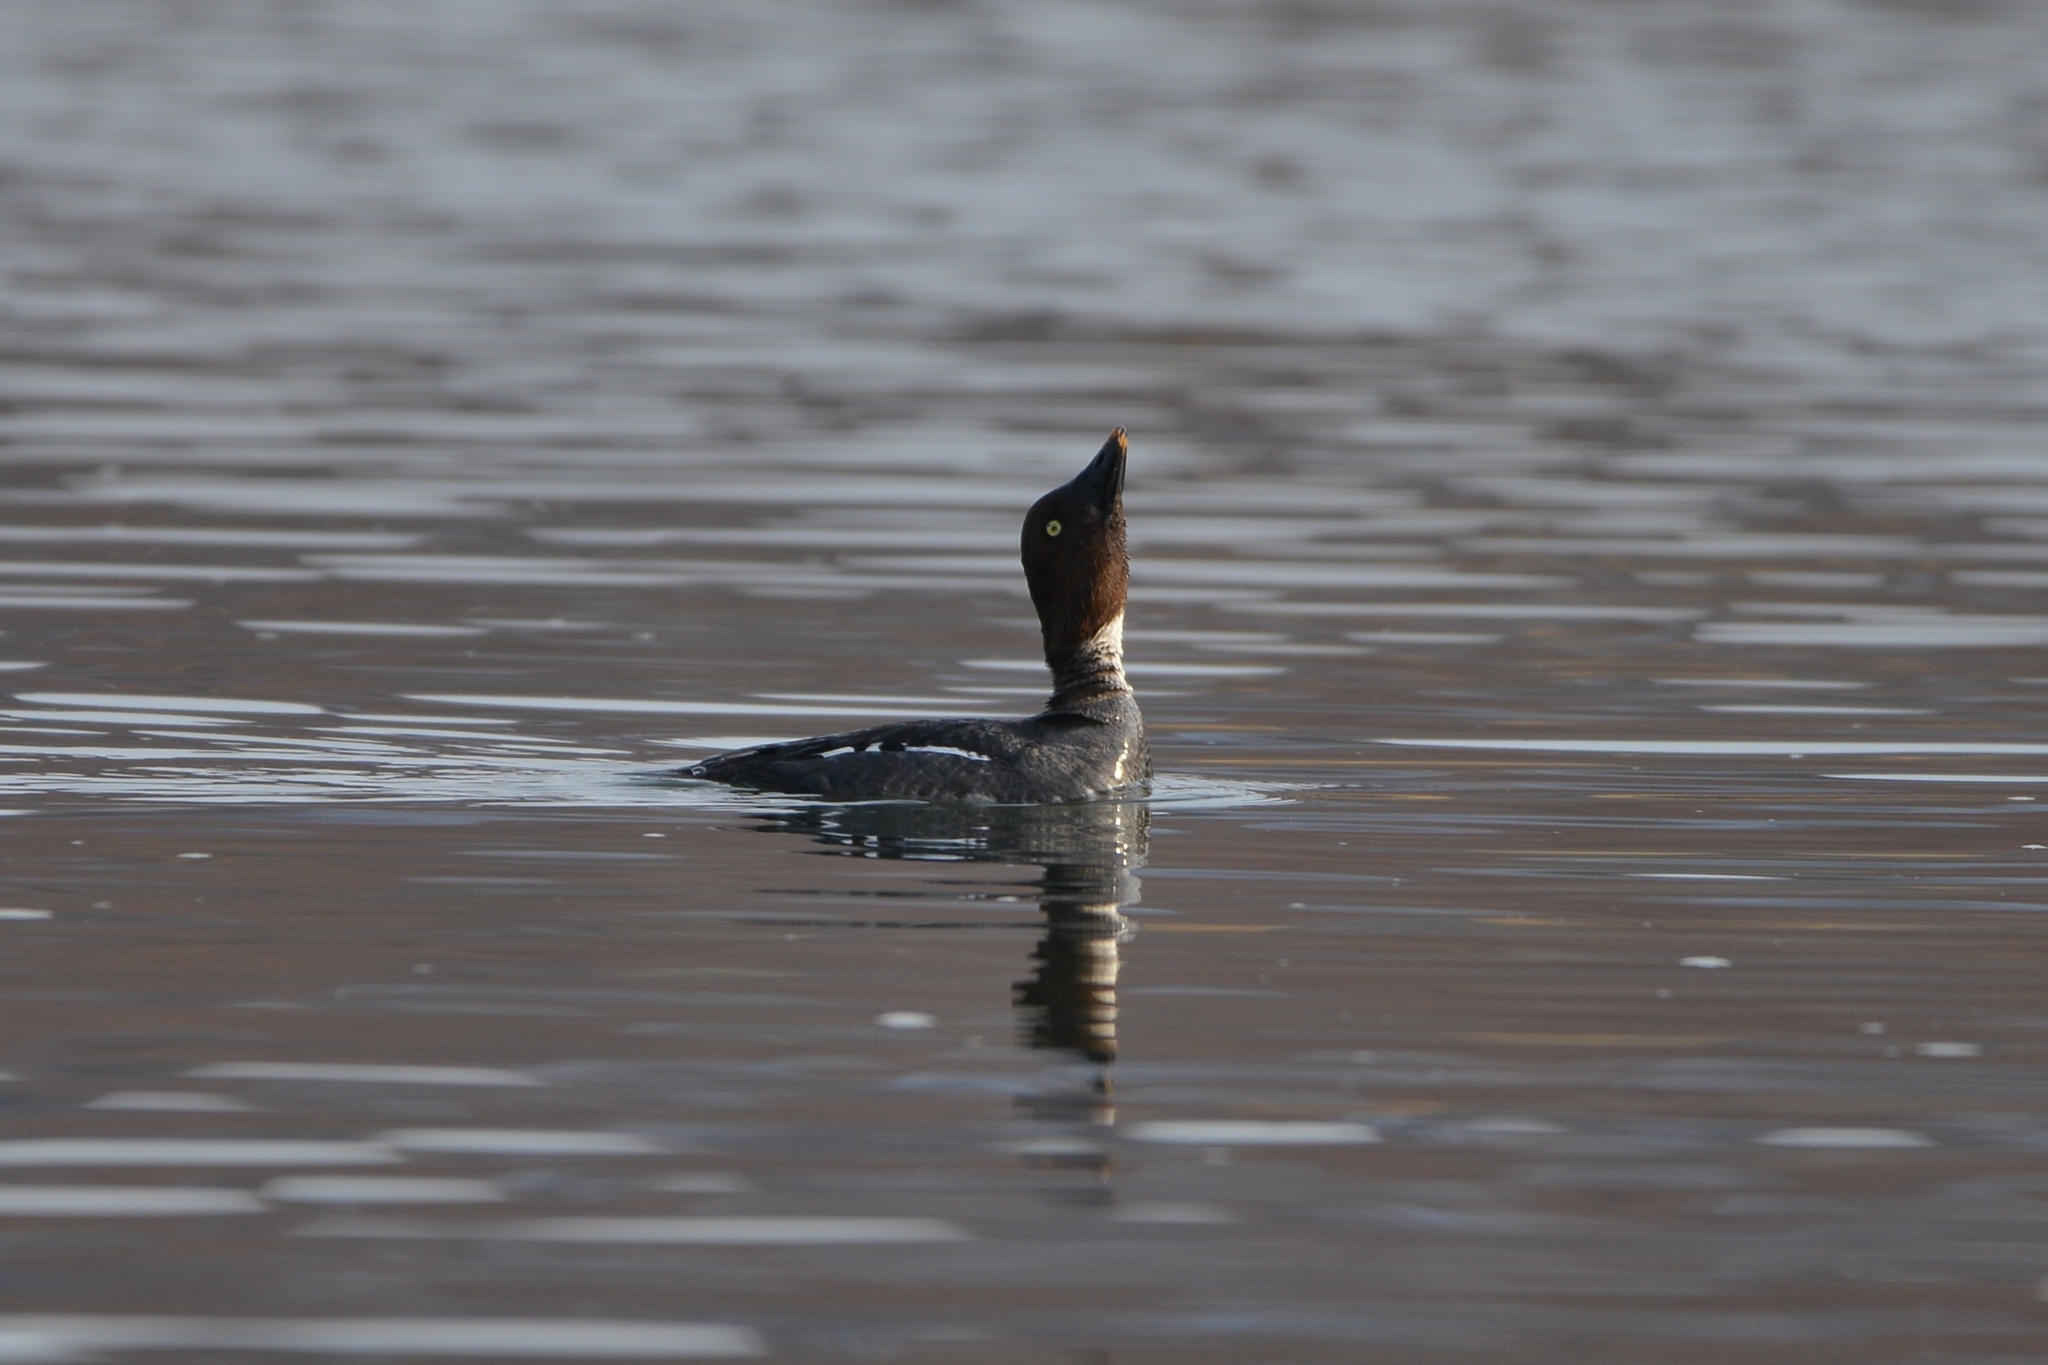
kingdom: Animalia
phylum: Chordata
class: Aves
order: Anseriformes
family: Anatidae
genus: Bucephala
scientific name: Bucephala clangula
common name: Common goldeneye
